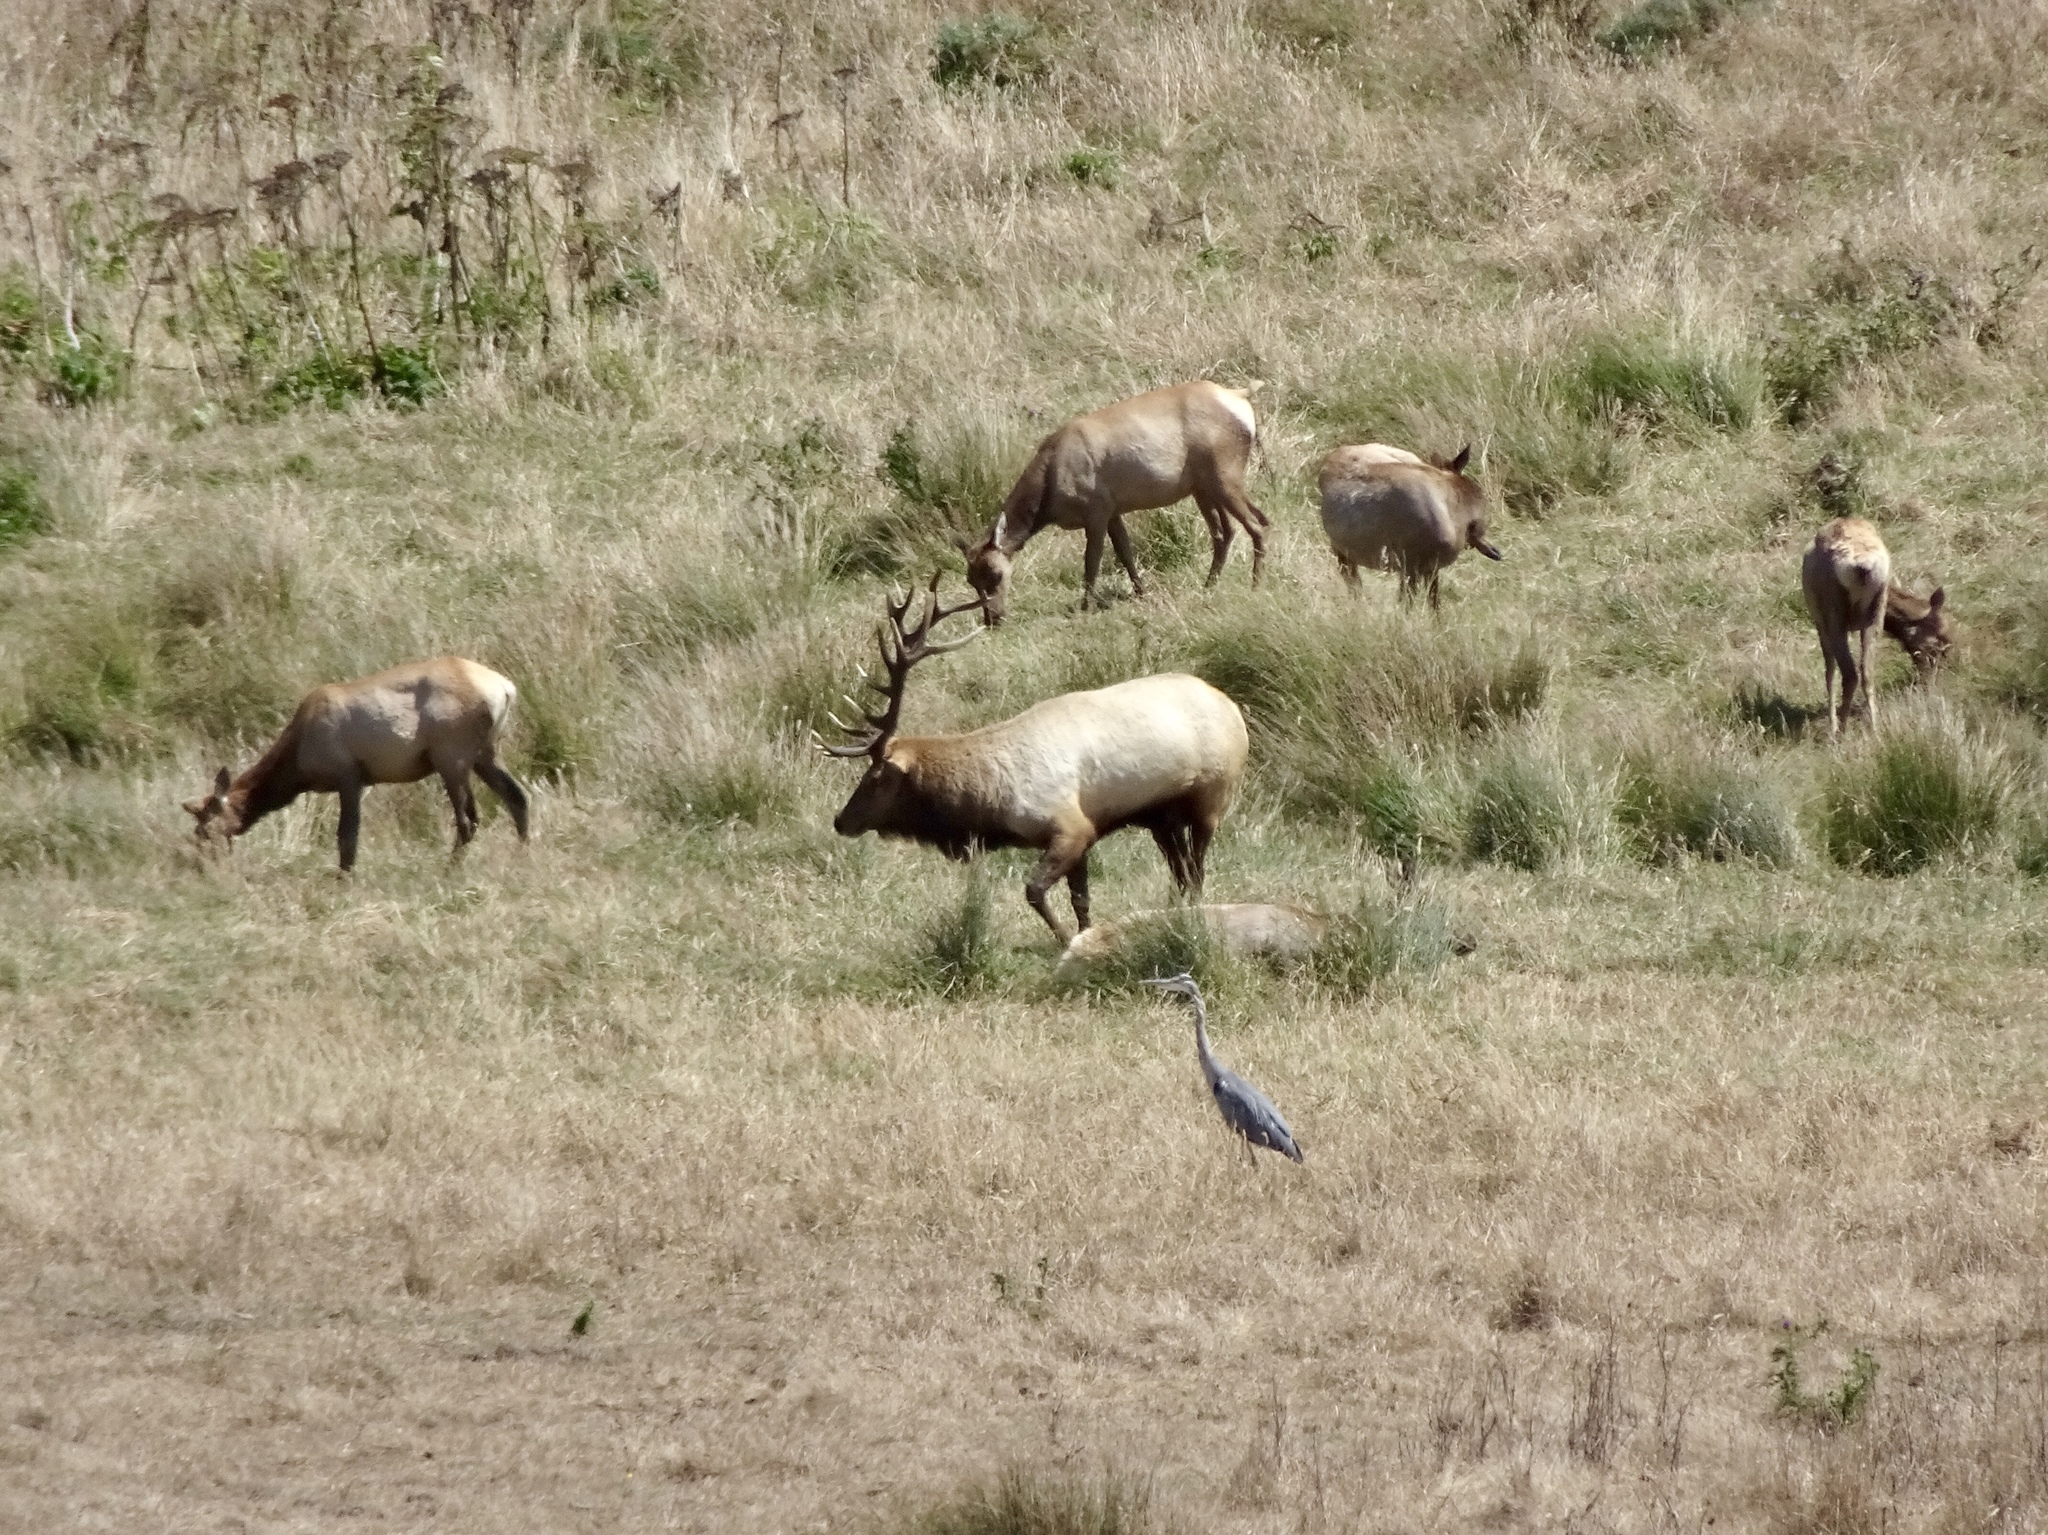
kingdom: Animalia
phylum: Chordata
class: Mammalia
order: Artiodactyla
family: Cervidae
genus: Cervus
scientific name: Cervus elaphus
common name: Red deer
